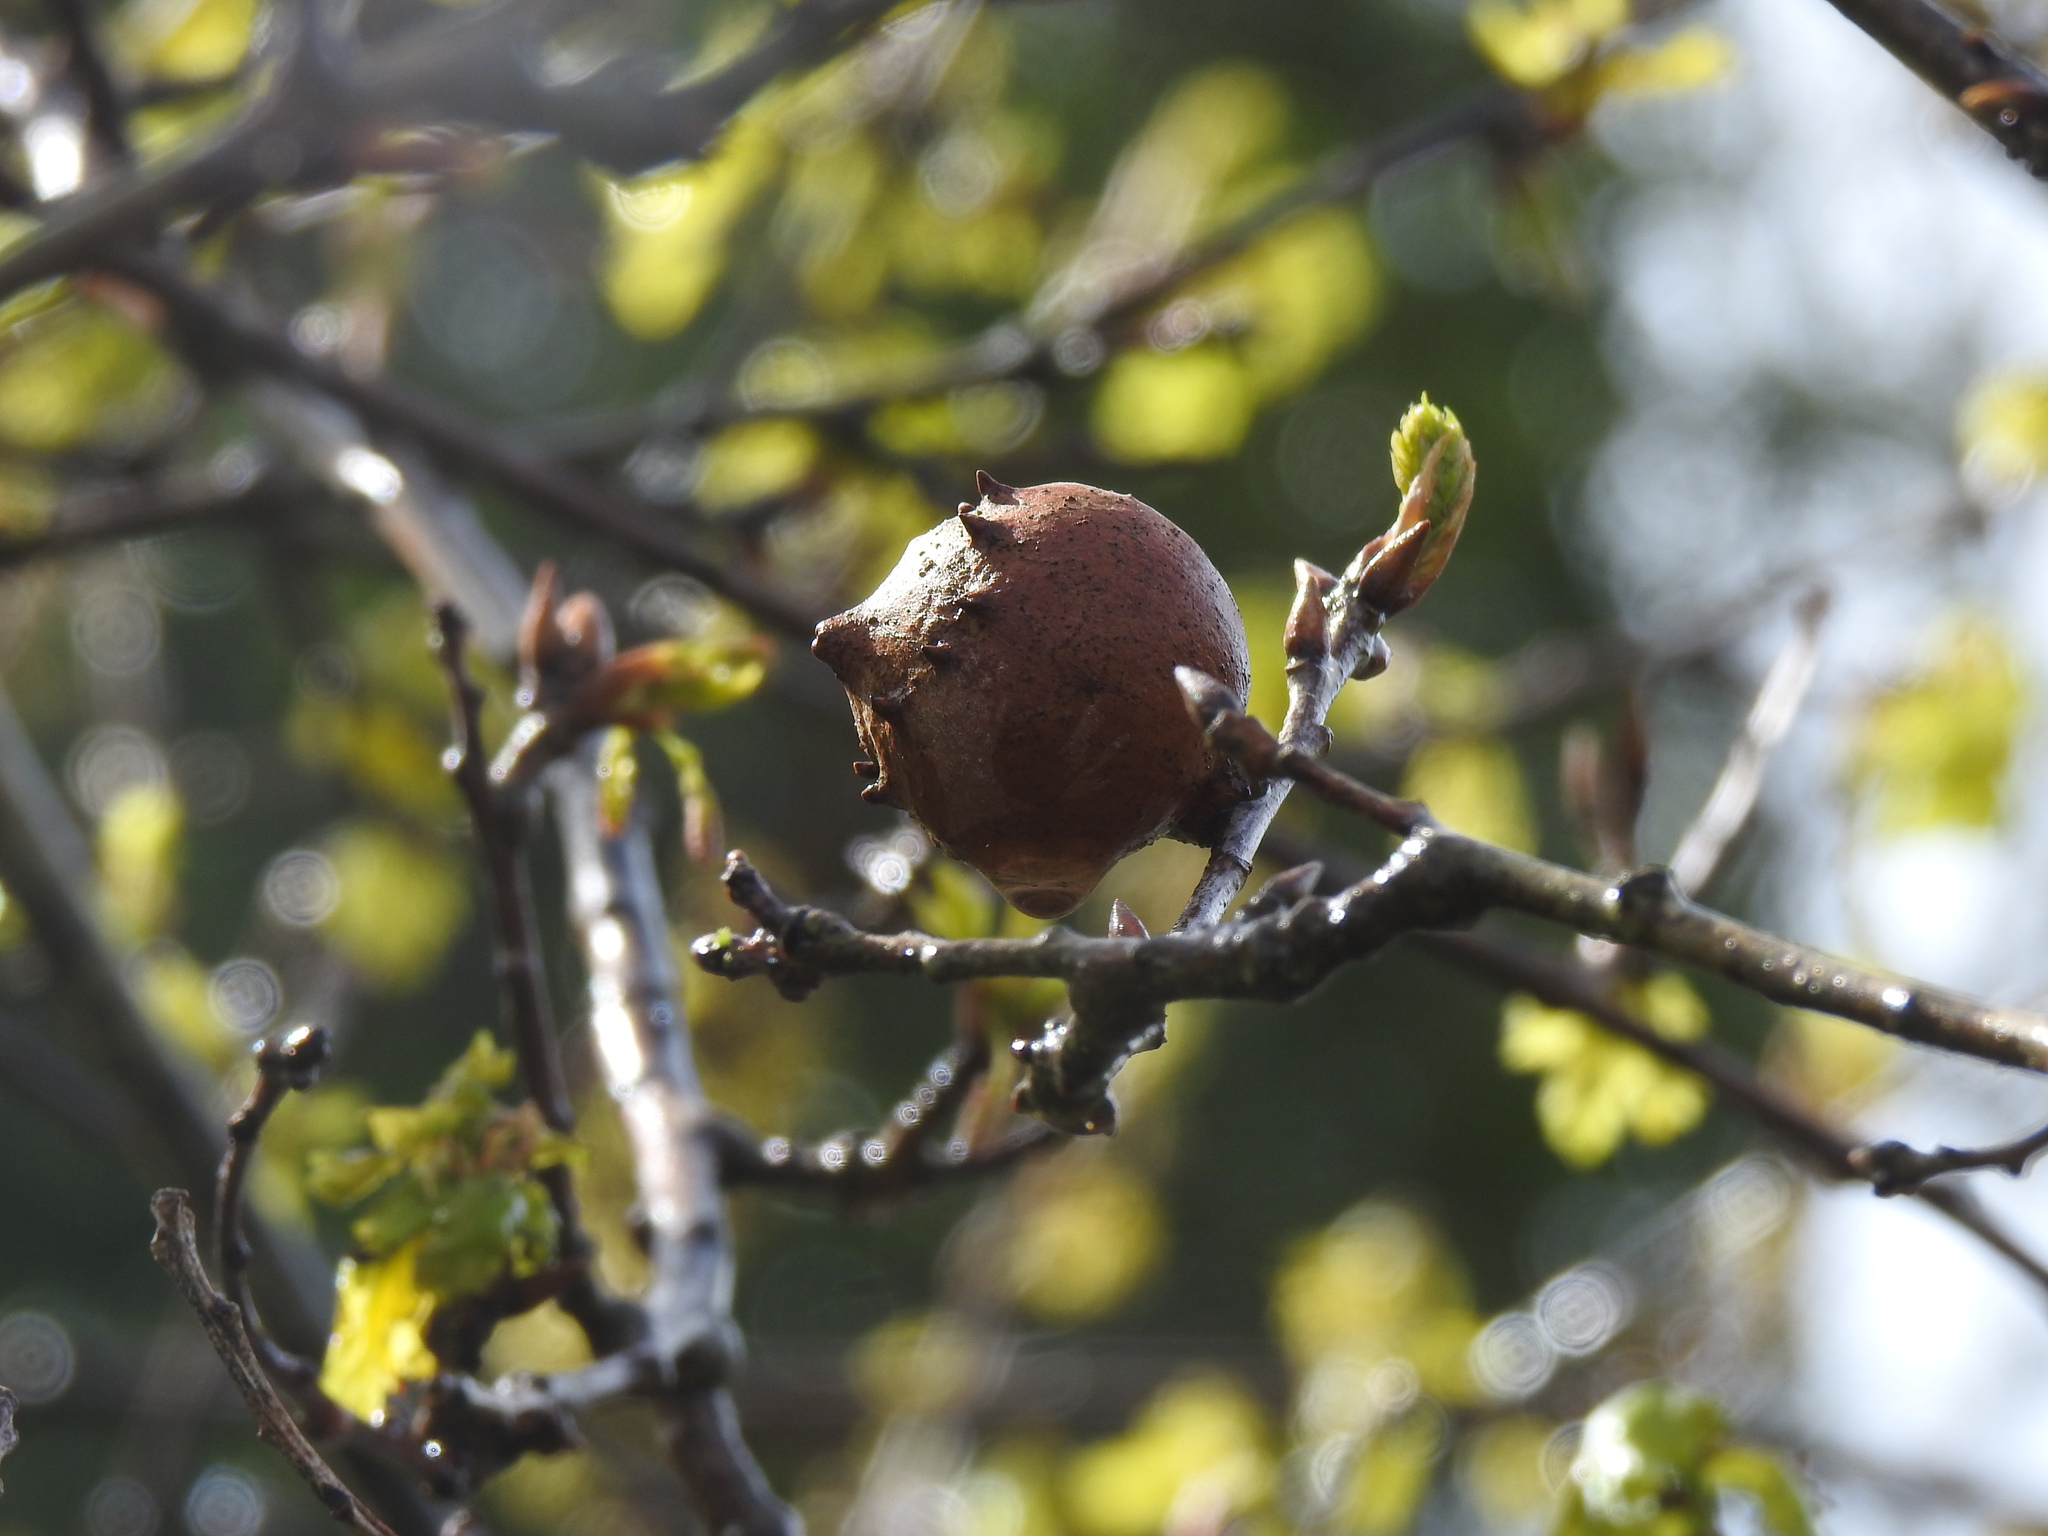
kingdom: Animalia
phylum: Arthropoda
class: Insecta
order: Hymenoptera
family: Cynipidae
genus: Andricus
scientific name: Andricus quercustozae
